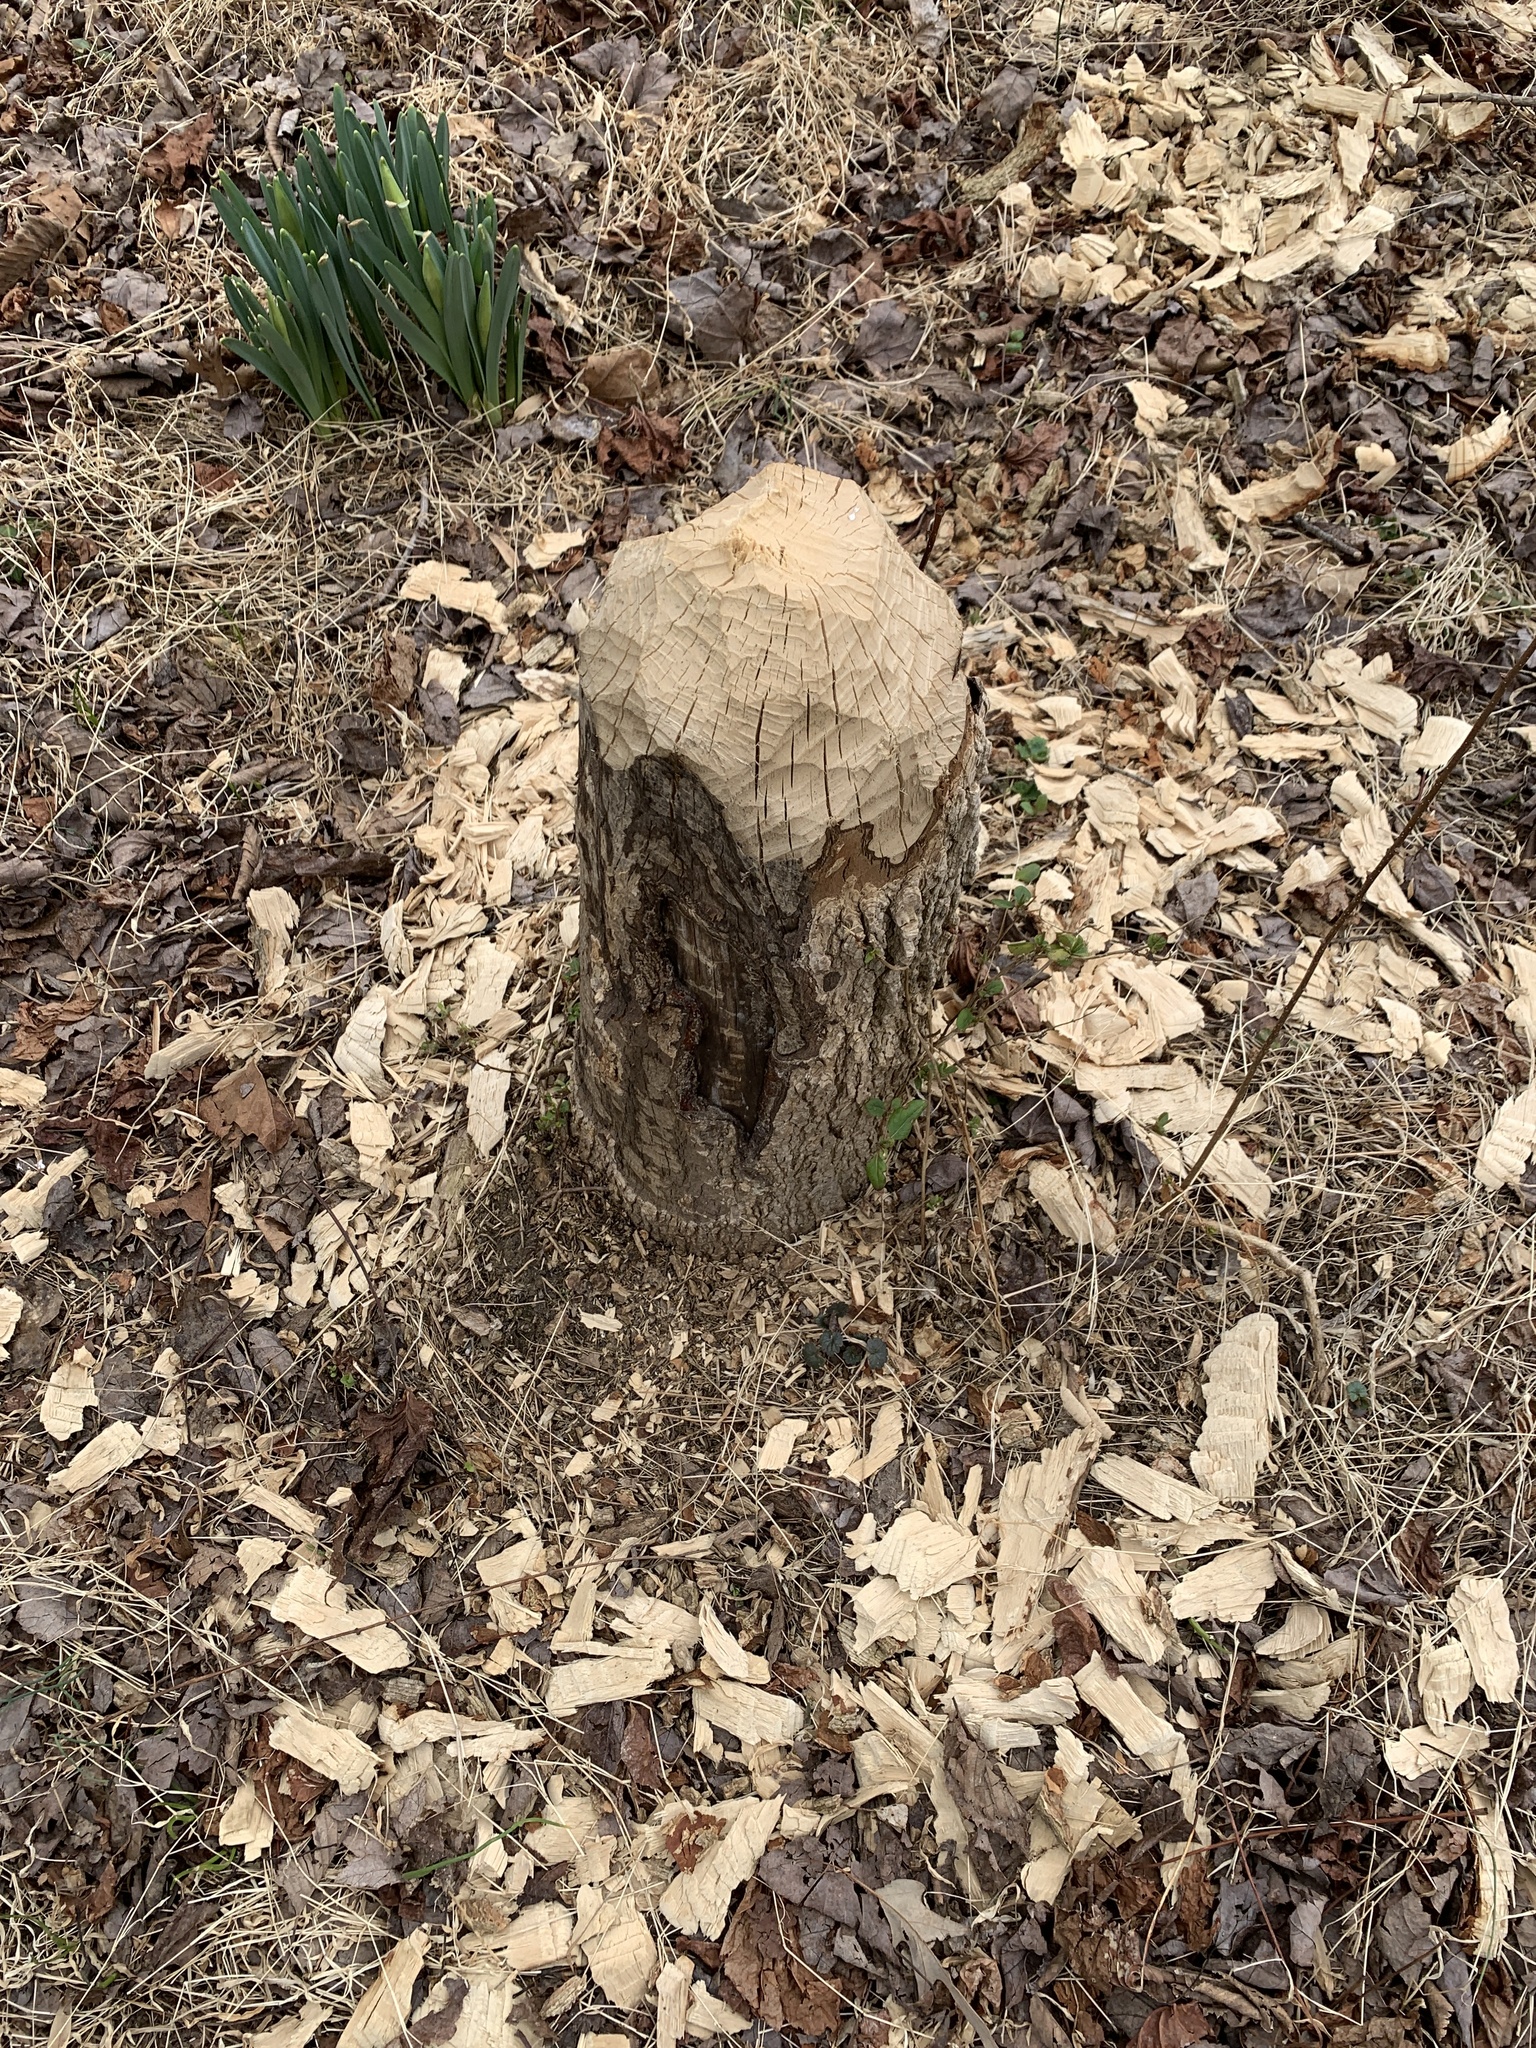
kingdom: Animalia
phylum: Chordata
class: Mammalia
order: Rodentia
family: Castoridae
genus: Castor
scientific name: Castor canadensis
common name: American beaver
